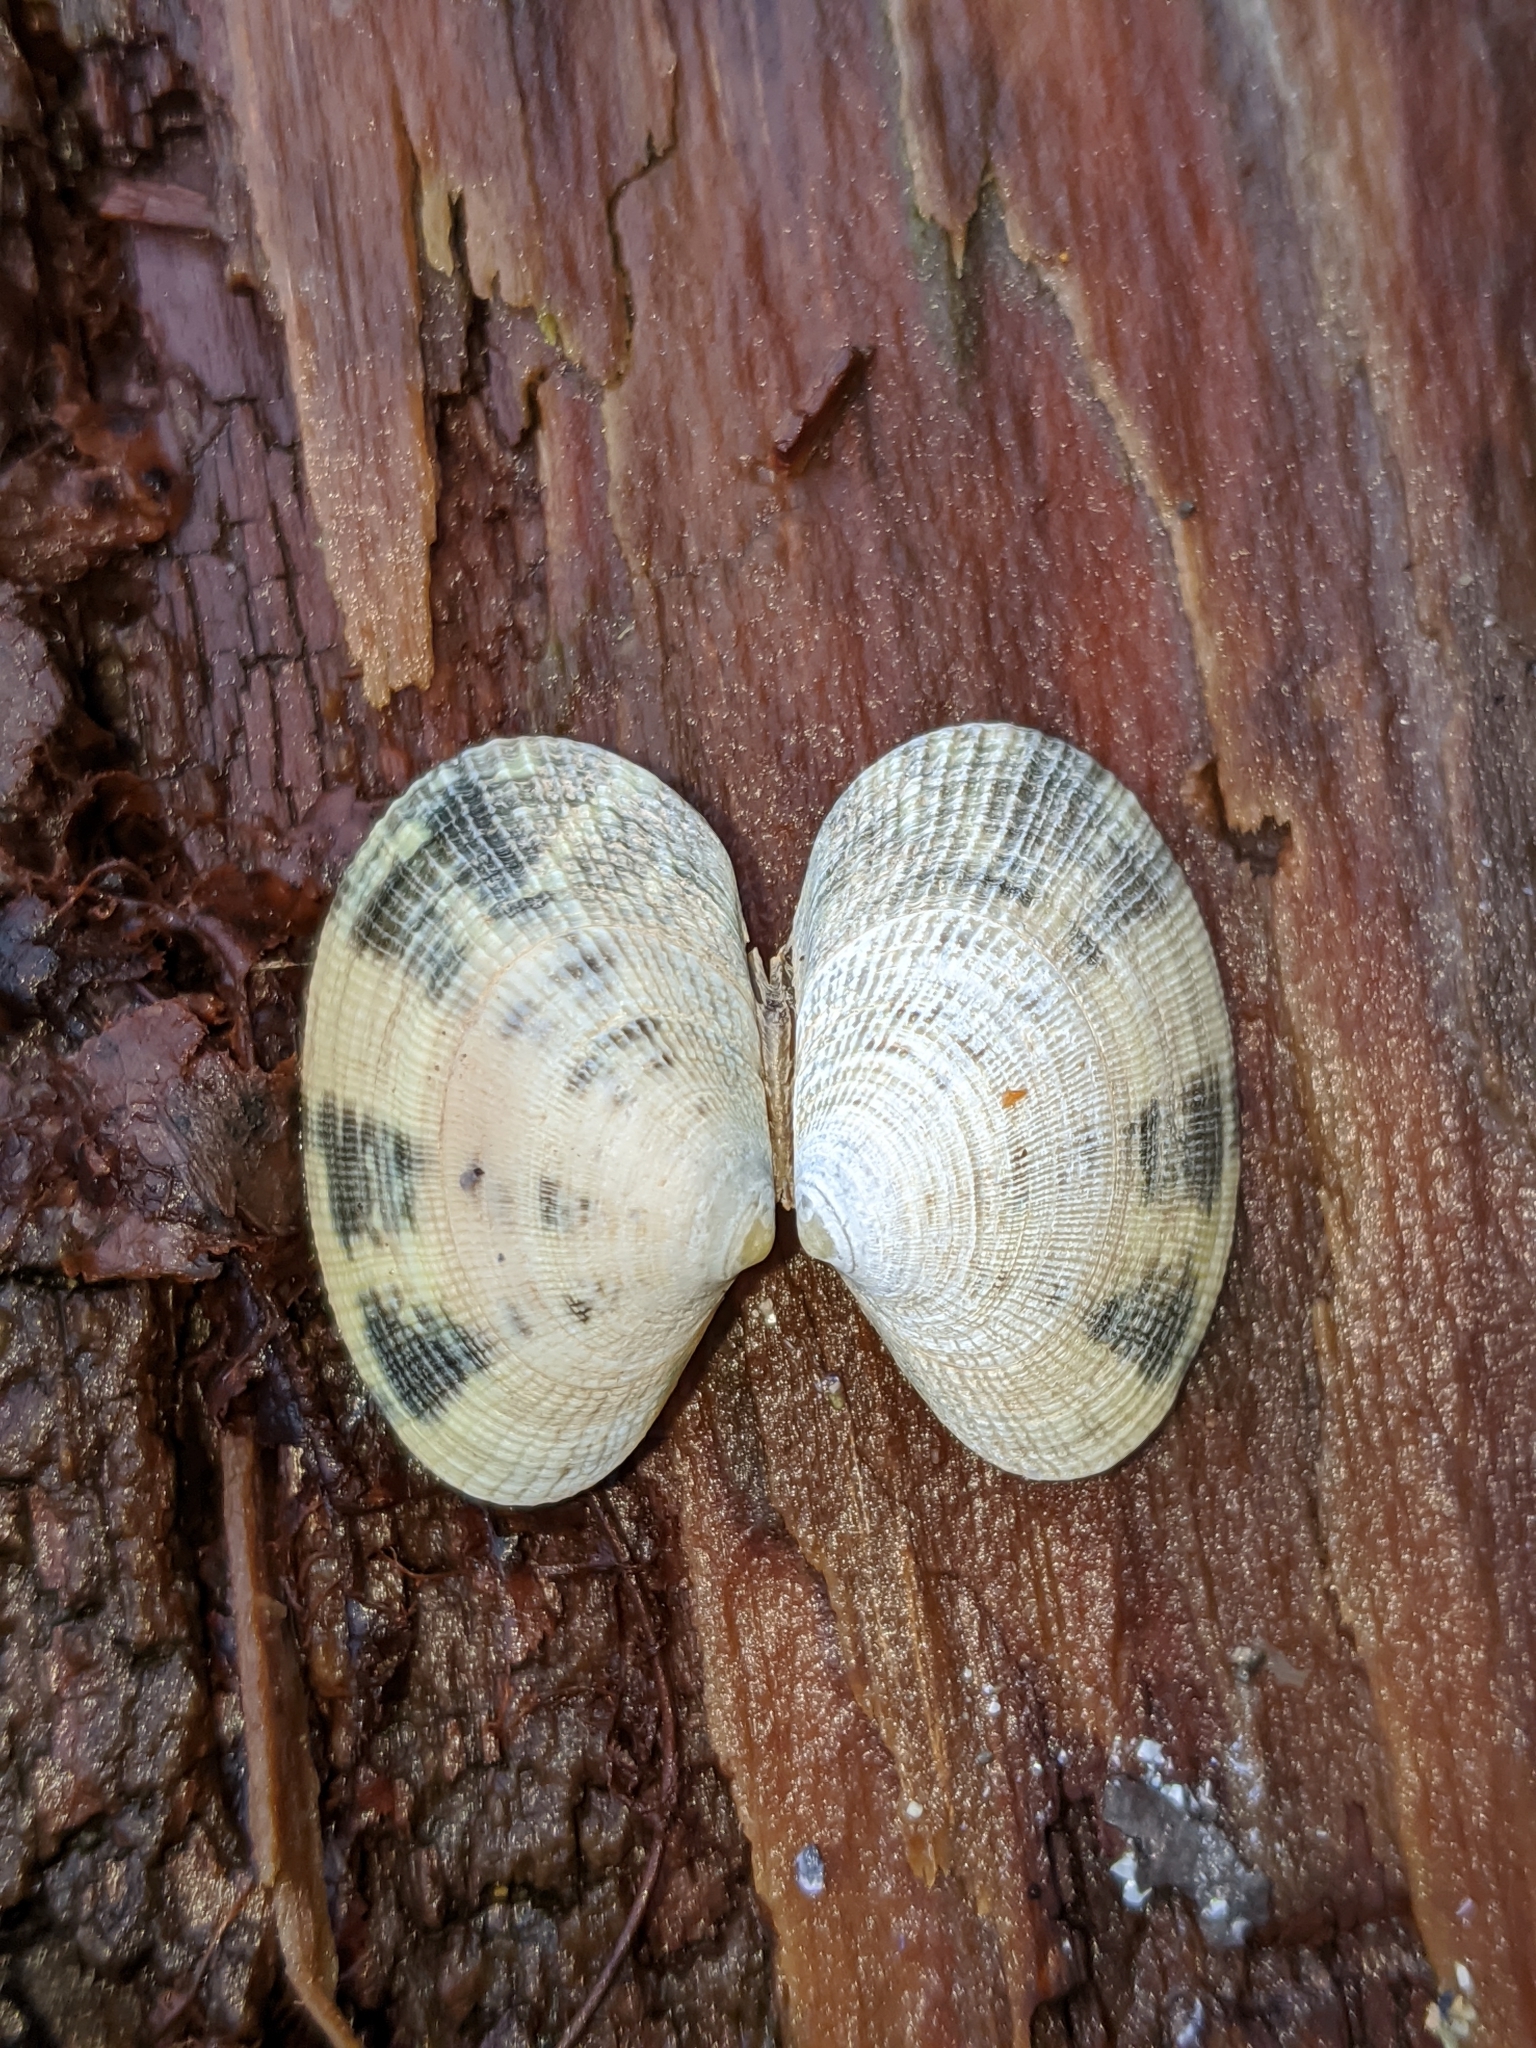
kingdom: Animalia
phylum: Mollusca
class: Bivalvia
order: Venerida
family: Veneridae
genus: Ruditapes
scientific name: Ruditapes philippinarum
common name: Manila clam
